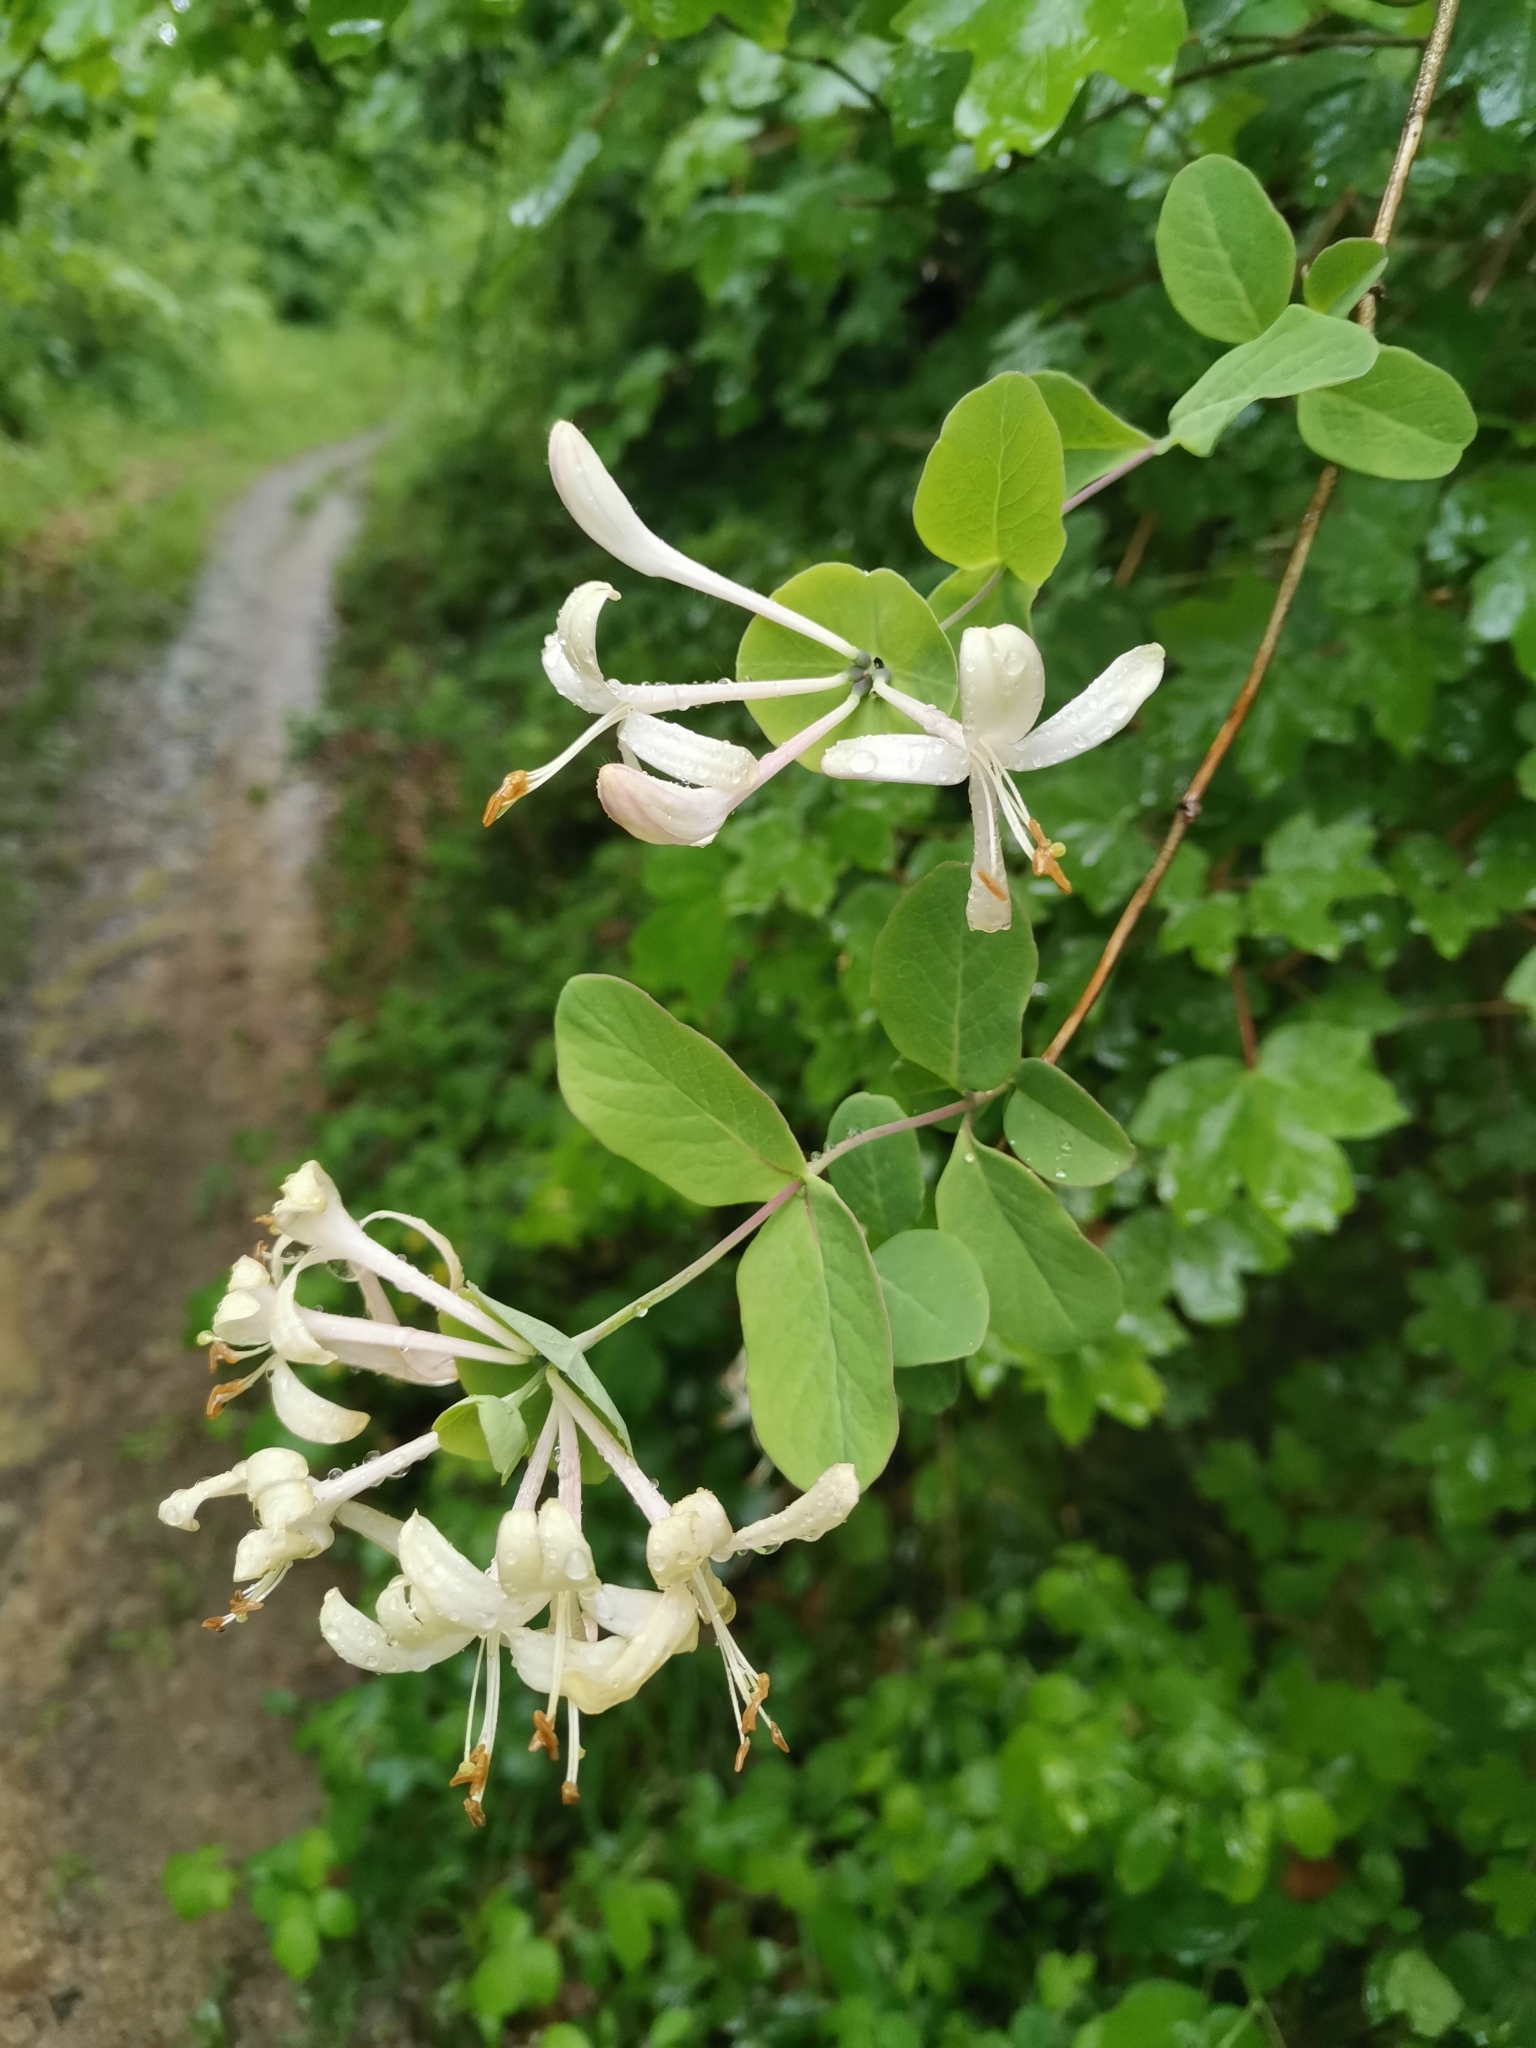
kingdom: Plantae
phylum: Tracheophyta
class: Magnoliopsida
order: Dipsacales
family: Caprifoliaceae
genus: Lonicera
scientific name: Lonicera caprifolium
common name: Perfoliate honeysuckle
